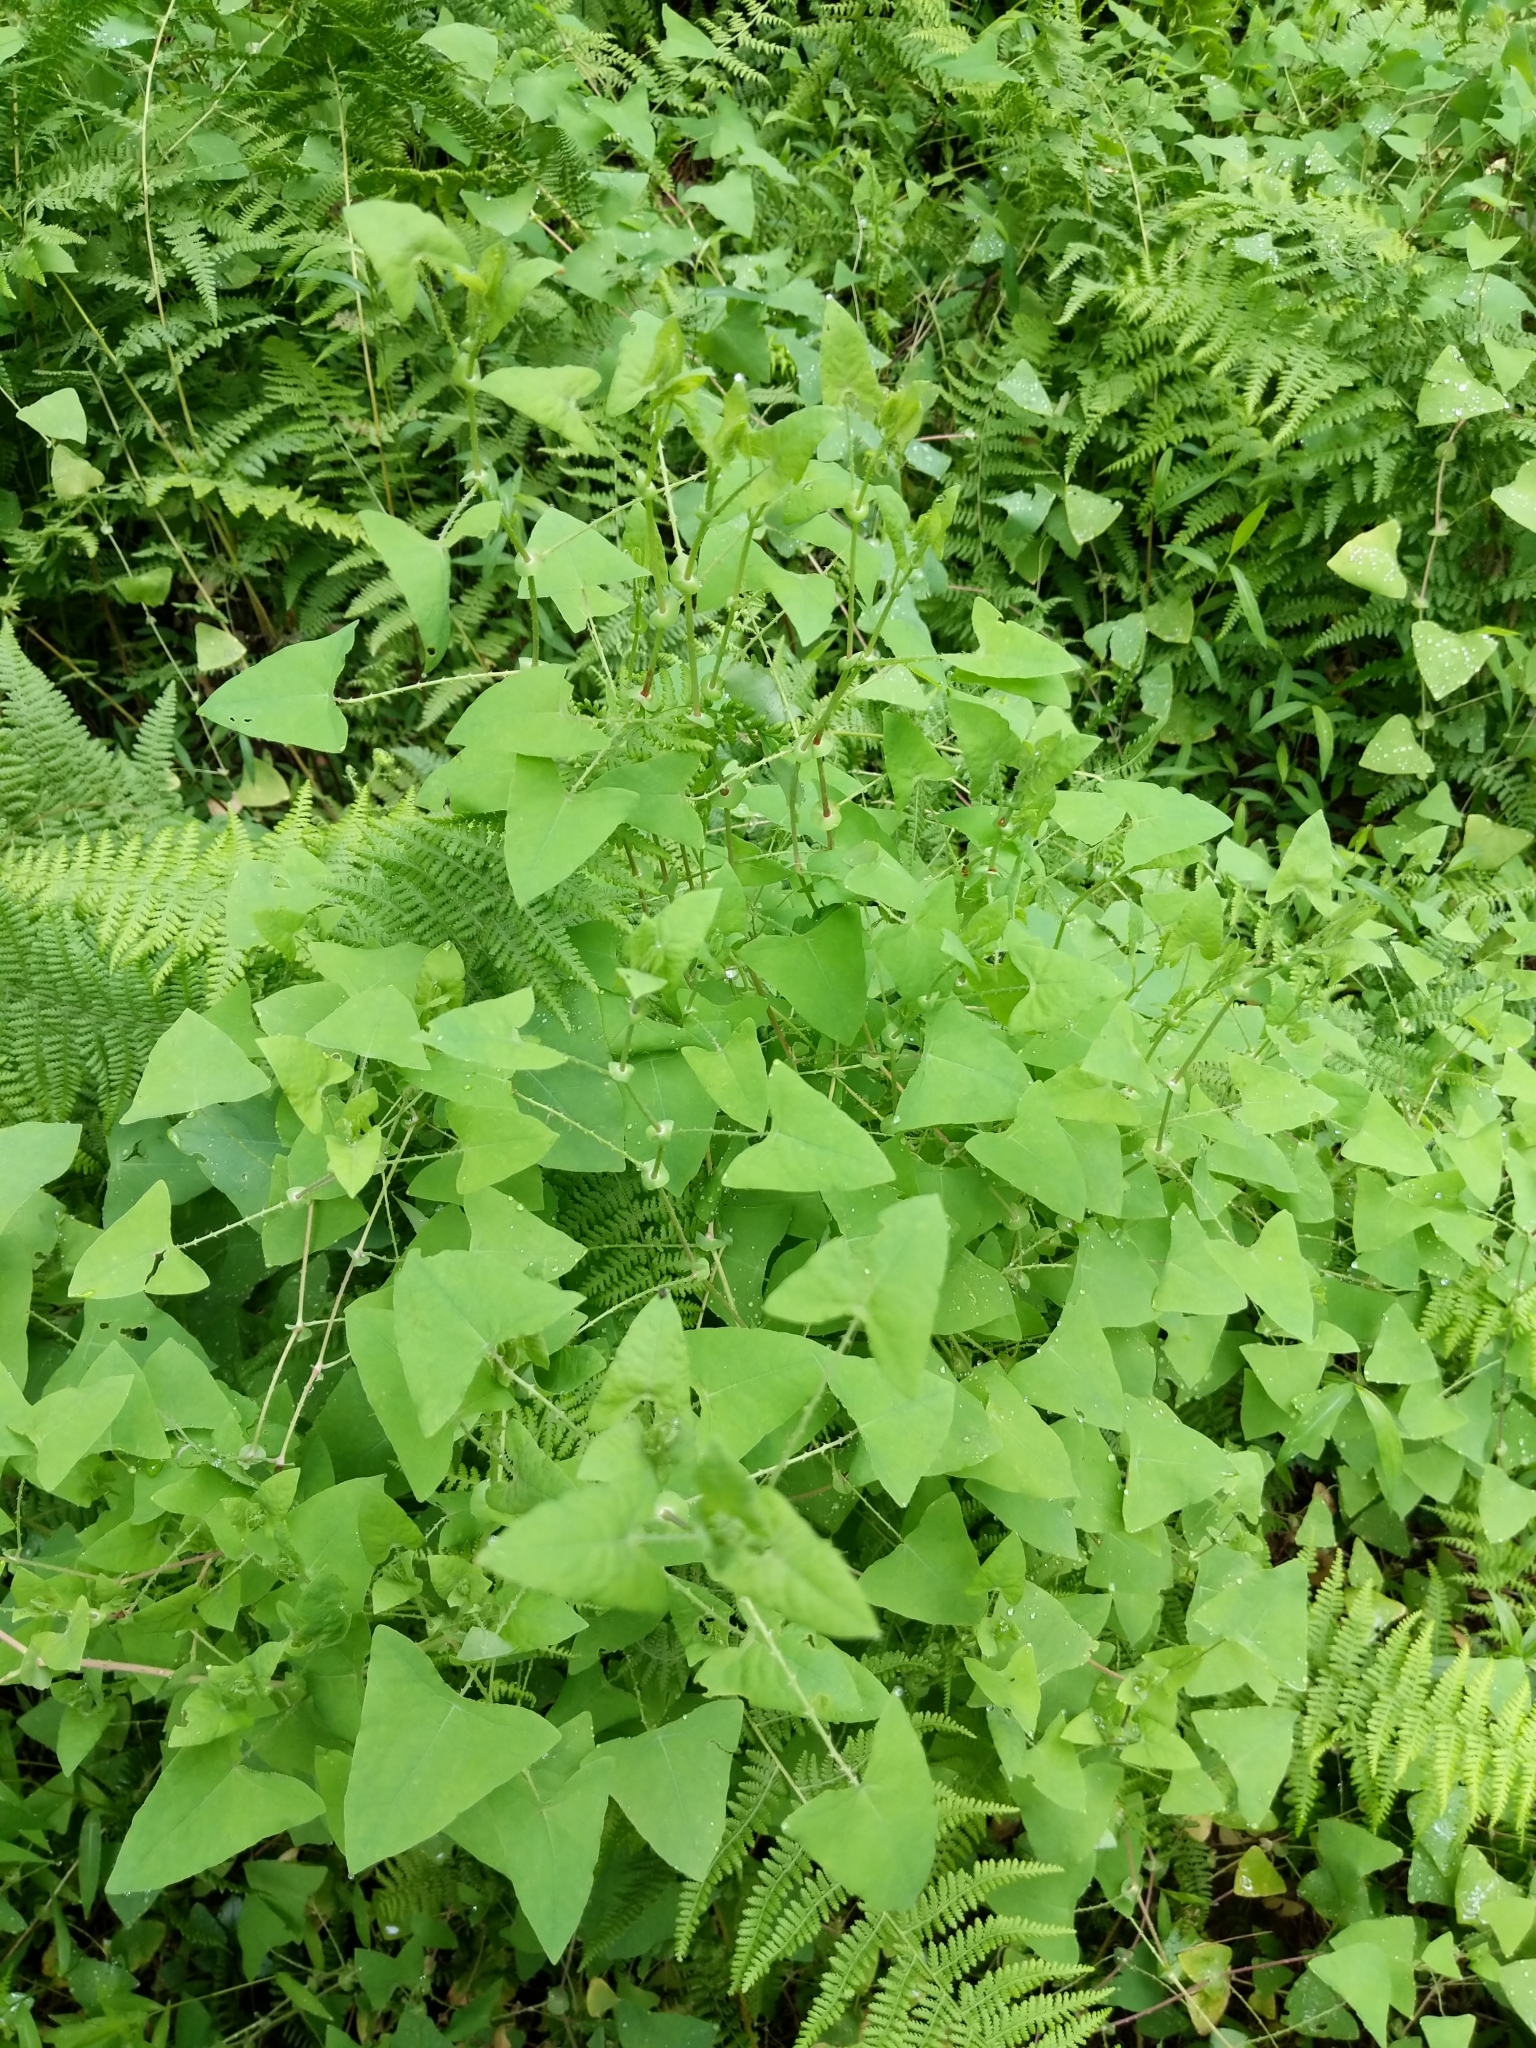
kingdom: Plantae
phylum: Tracheophyta
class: Magnoliopsida
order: Caryophyllales
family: Polygonaceae
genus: Persicaria
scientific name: Persicaria perfoliata
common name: Asiatic tearthumb
